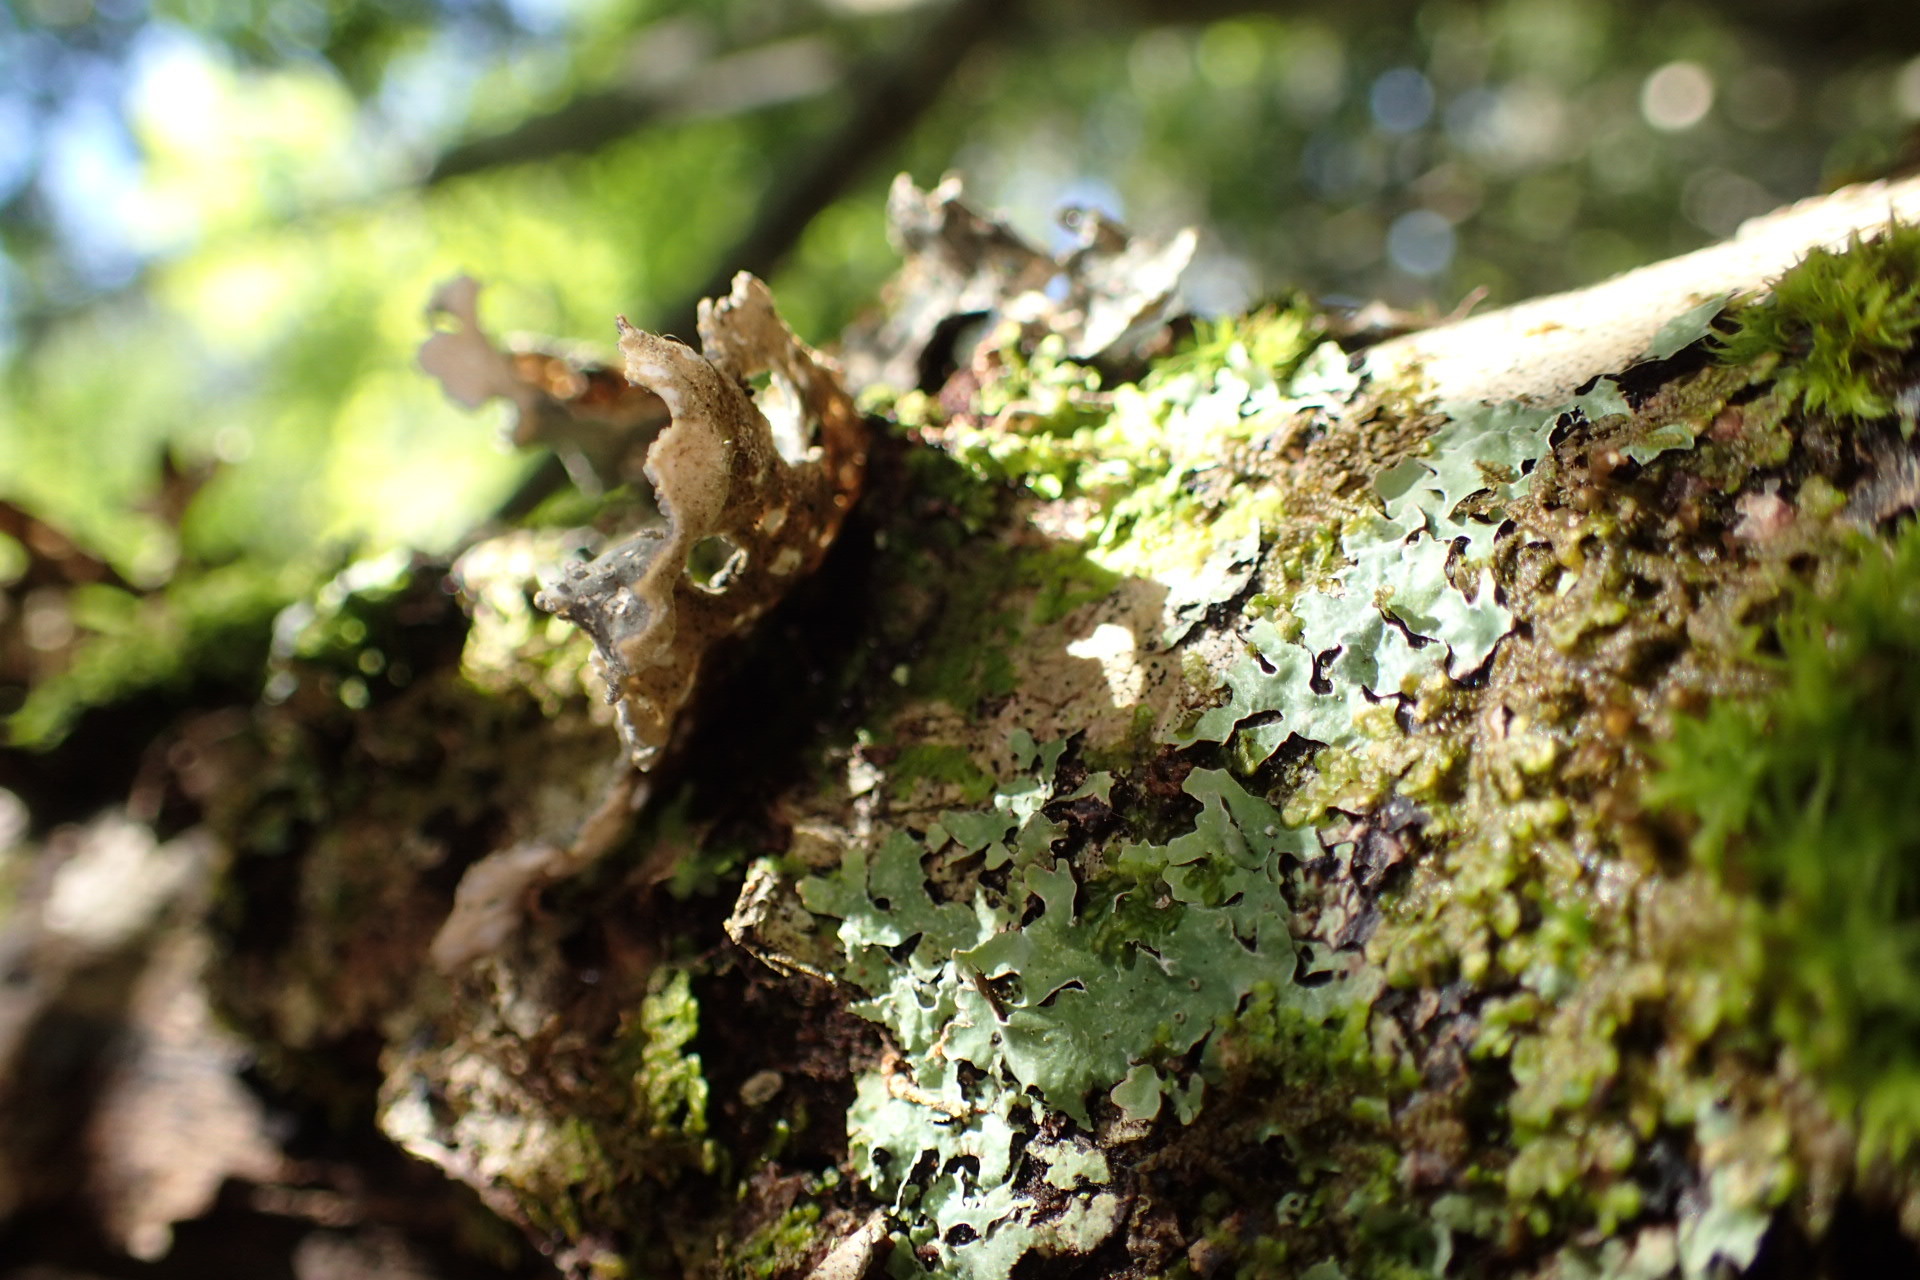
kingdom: Fungi
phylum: Ascomycota
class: Lecanoromycetes
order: Peltigerales
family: Lobariaceae
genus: Lobarina
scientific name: Lobarina scrobiculata
